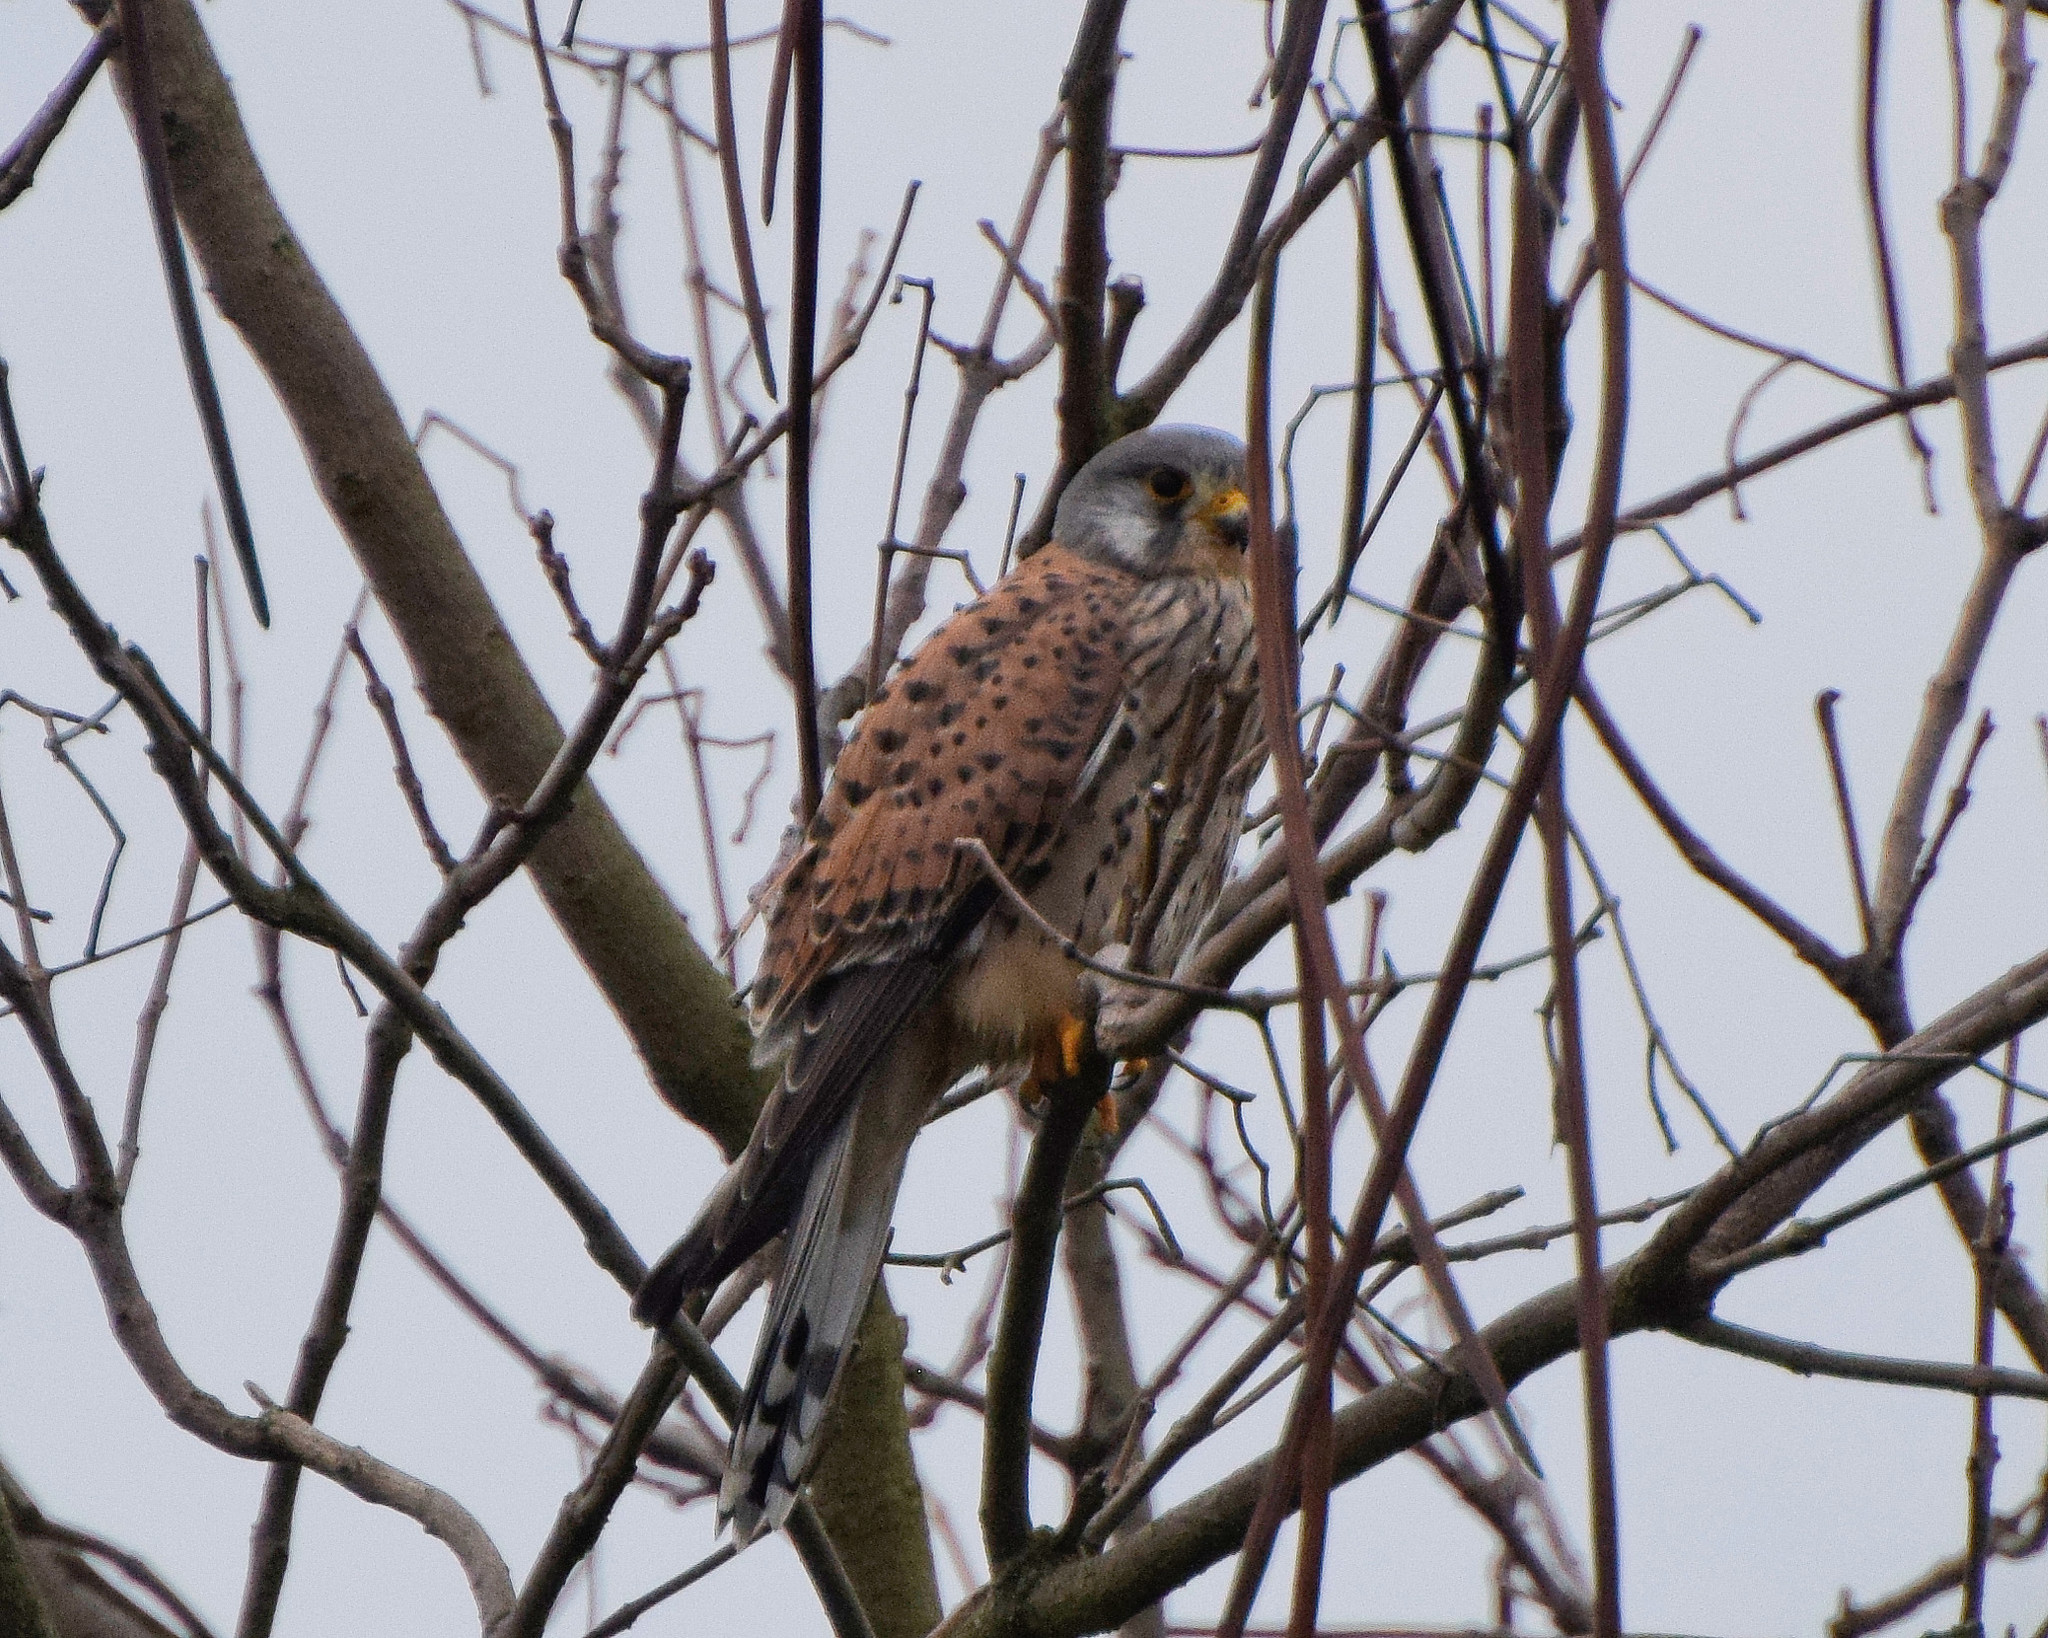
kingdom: Animalia
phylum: Chordata
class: Aves
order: Falconiformes
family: Falconidae
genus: Falco
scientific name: Falco tinnunculus
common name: Common kestrel
